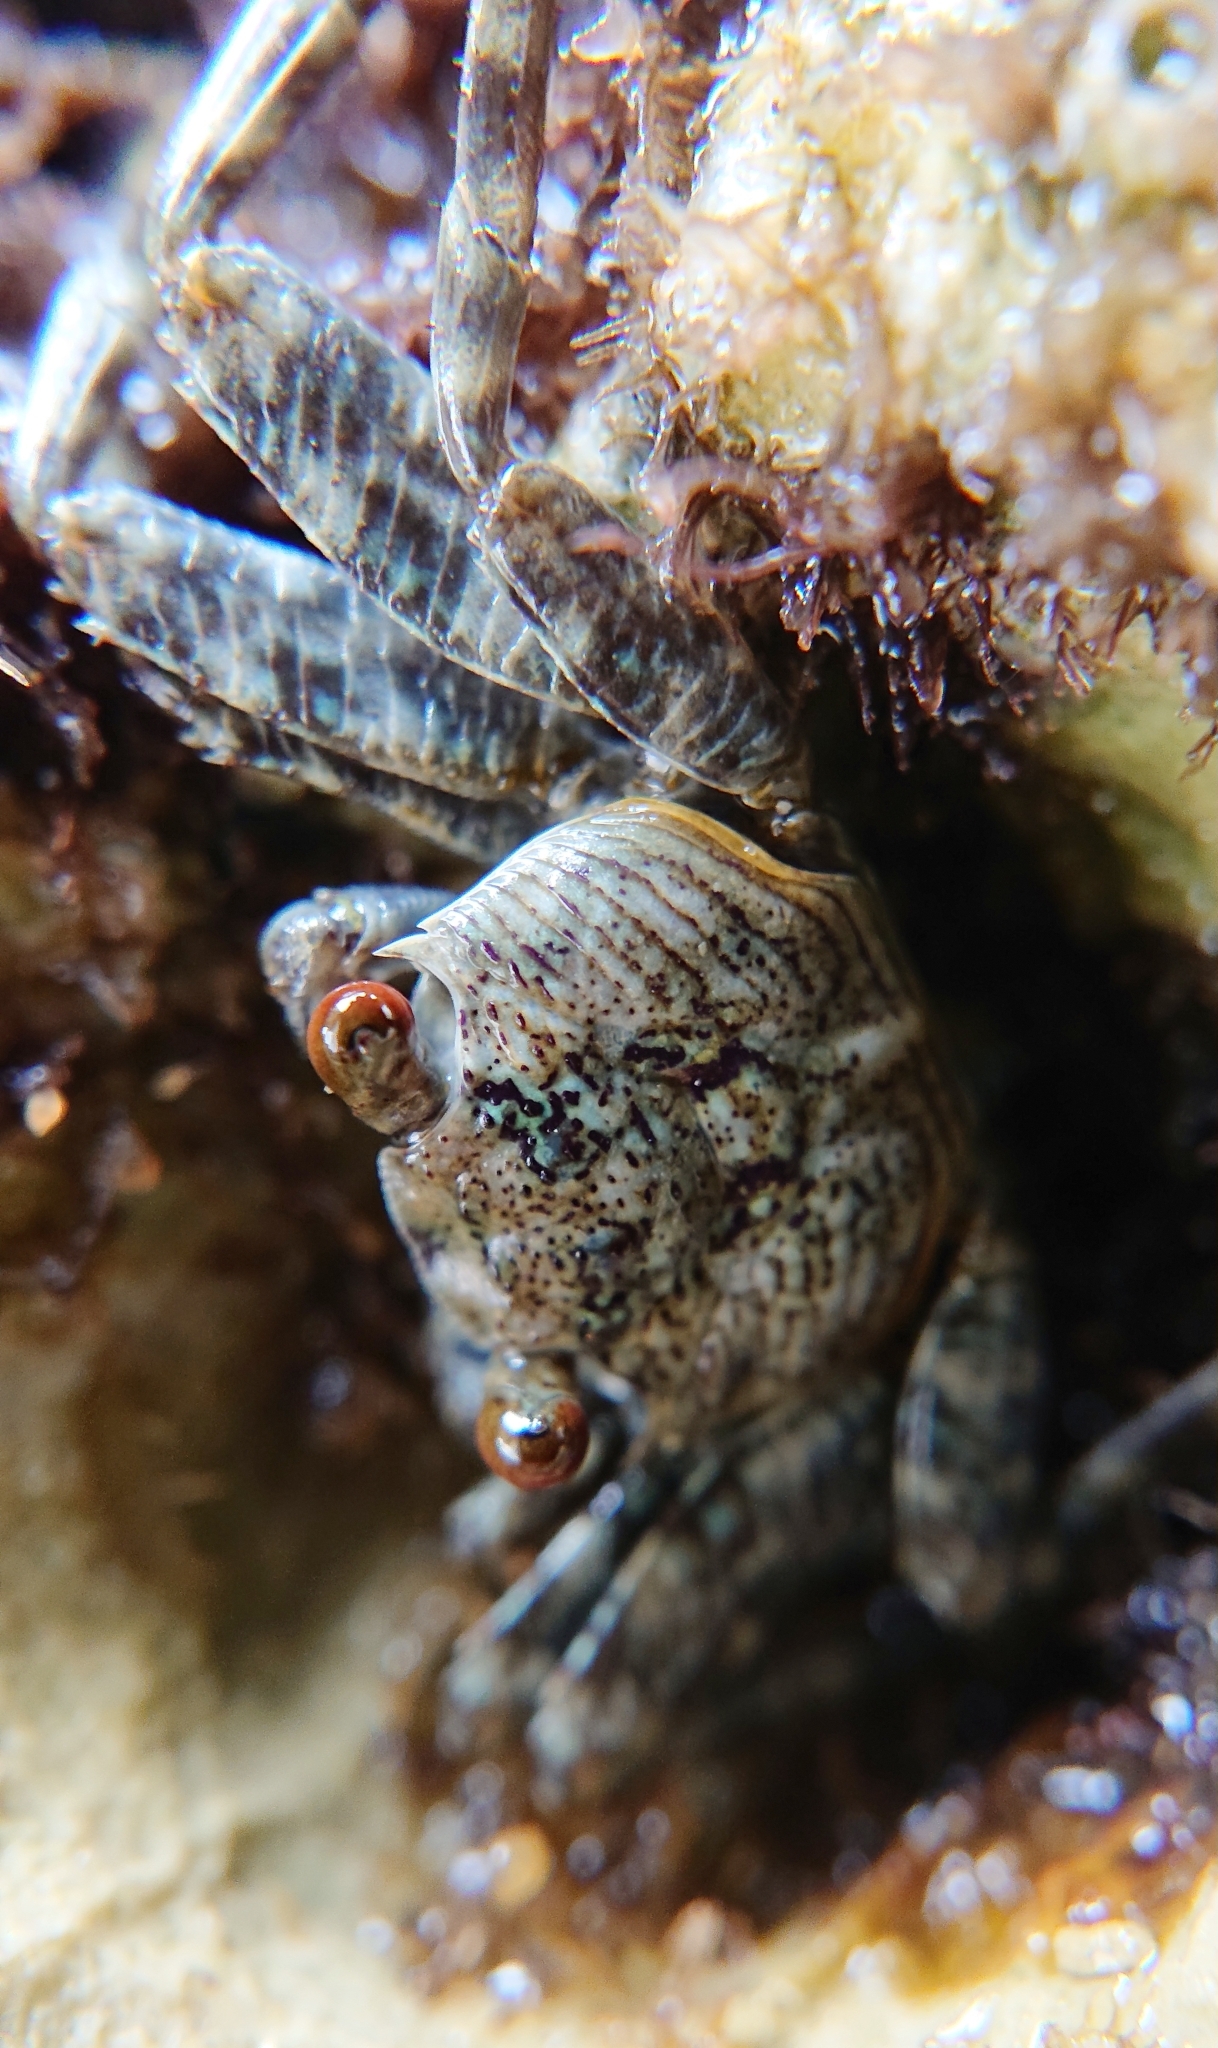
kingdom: Animalia
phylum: Arthropoda
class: Malacostraca
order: Decapoda
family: Grapsidae
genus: Grapsus
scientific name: Grapsus grapsus
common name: Sally lightfoot
